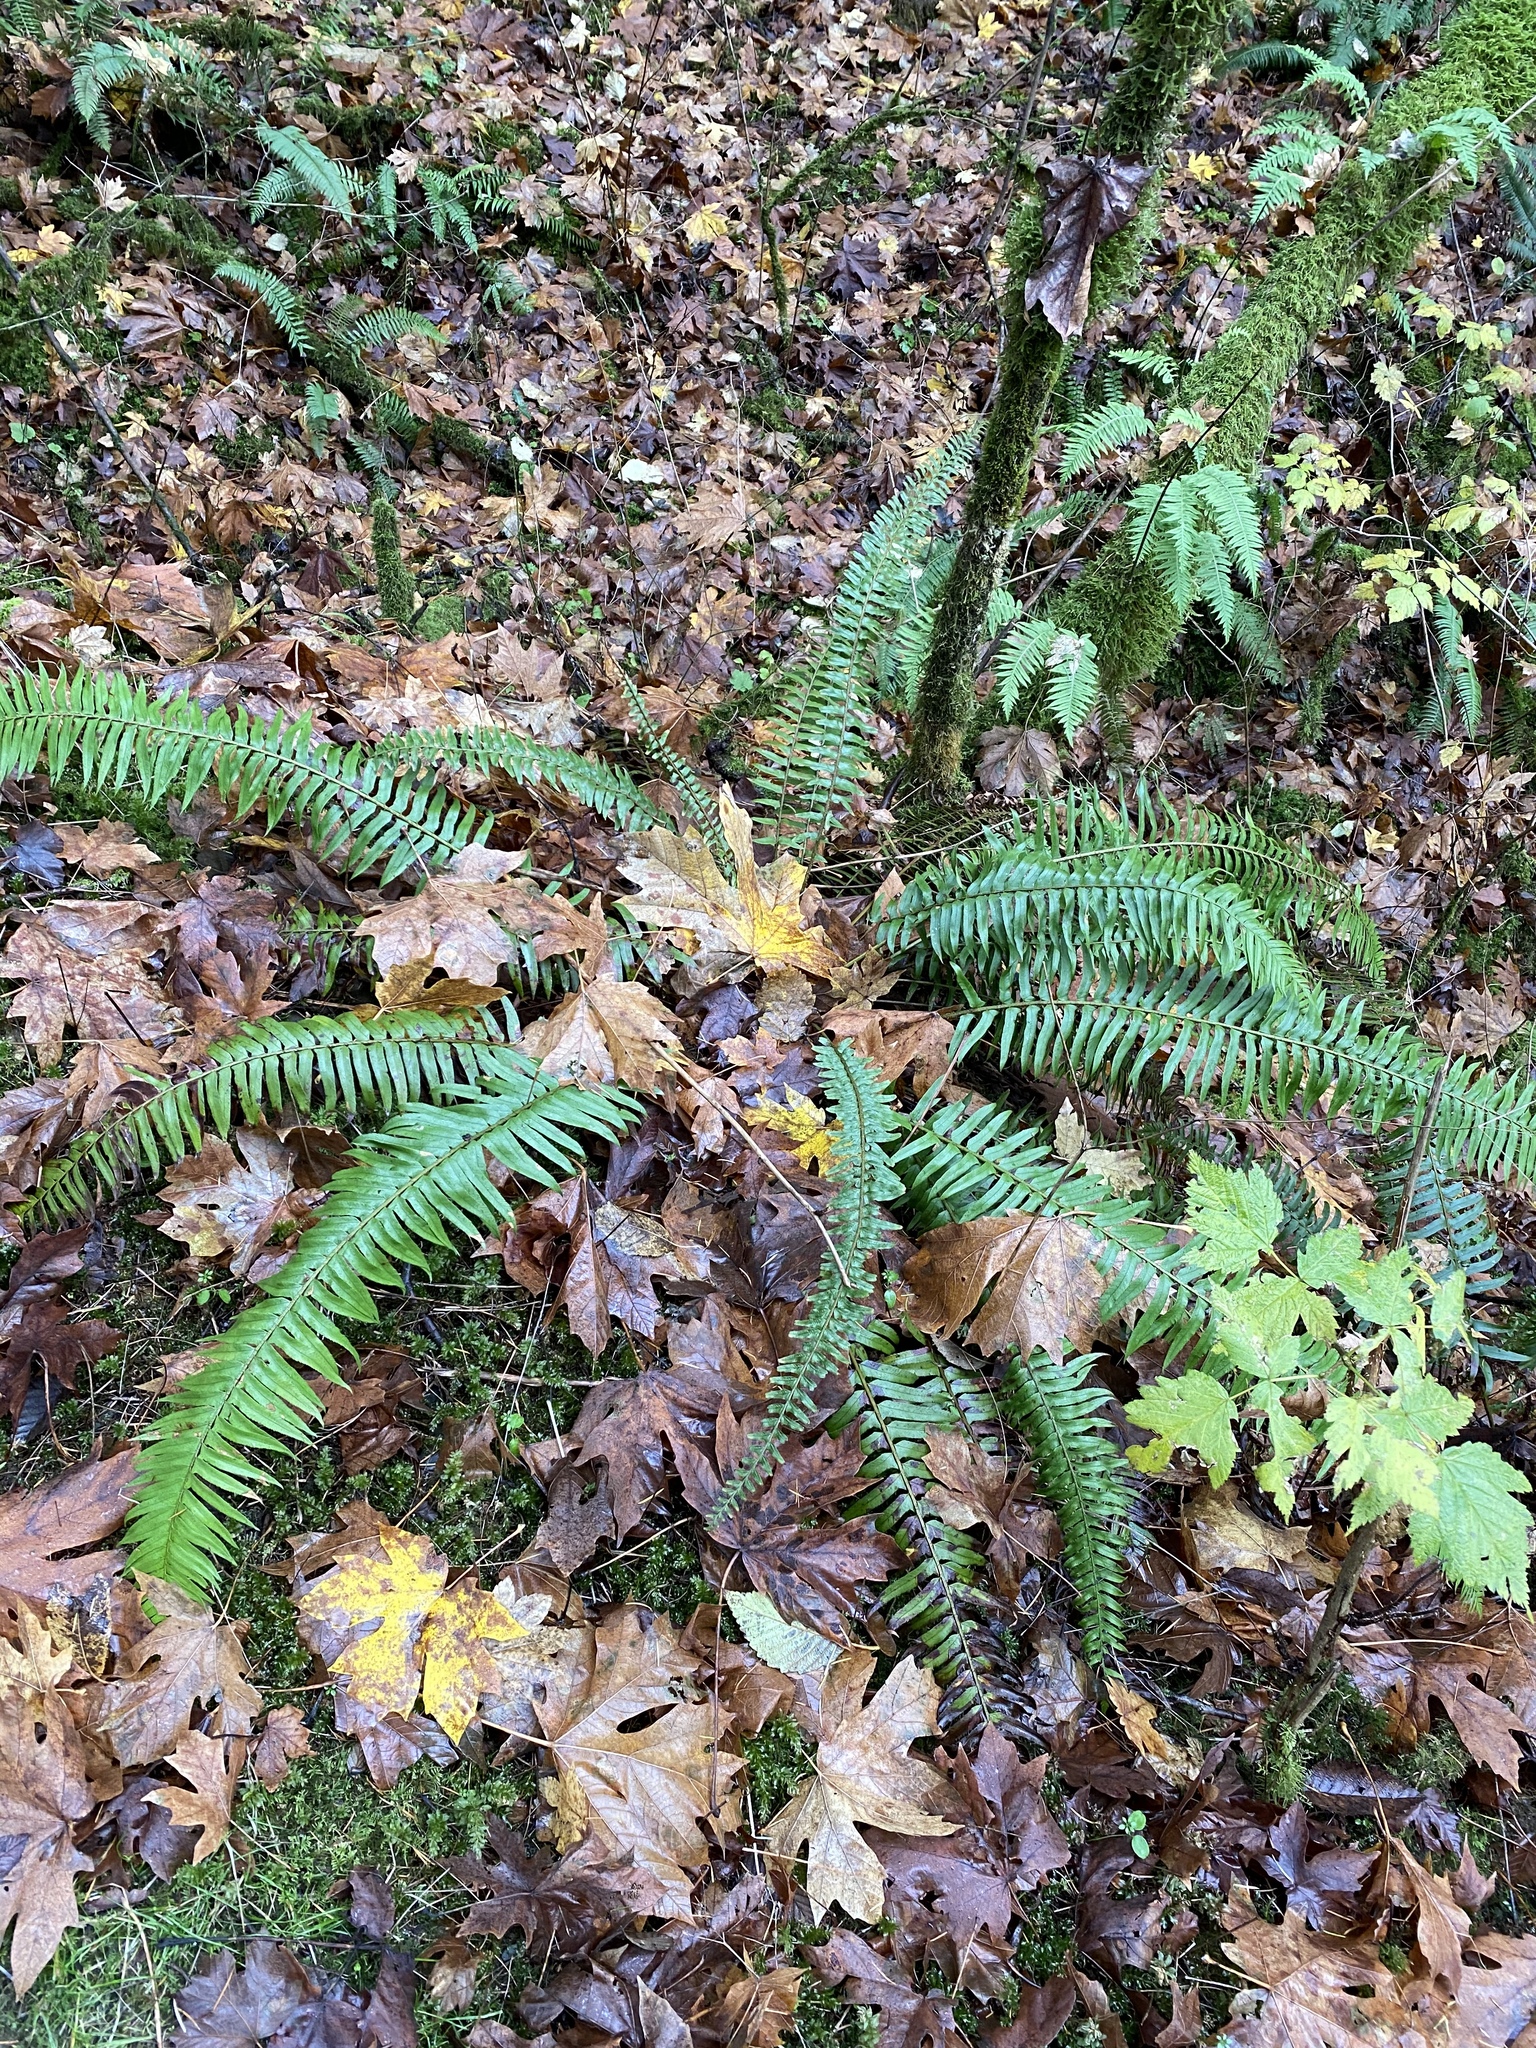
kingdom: Plantae
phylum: Tracheophyta
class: Polypodiopsida
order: Polypodiales
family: Dryopteridaceae
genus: Polystichum
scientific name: Polystichum munitum
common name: Western sword-fern
